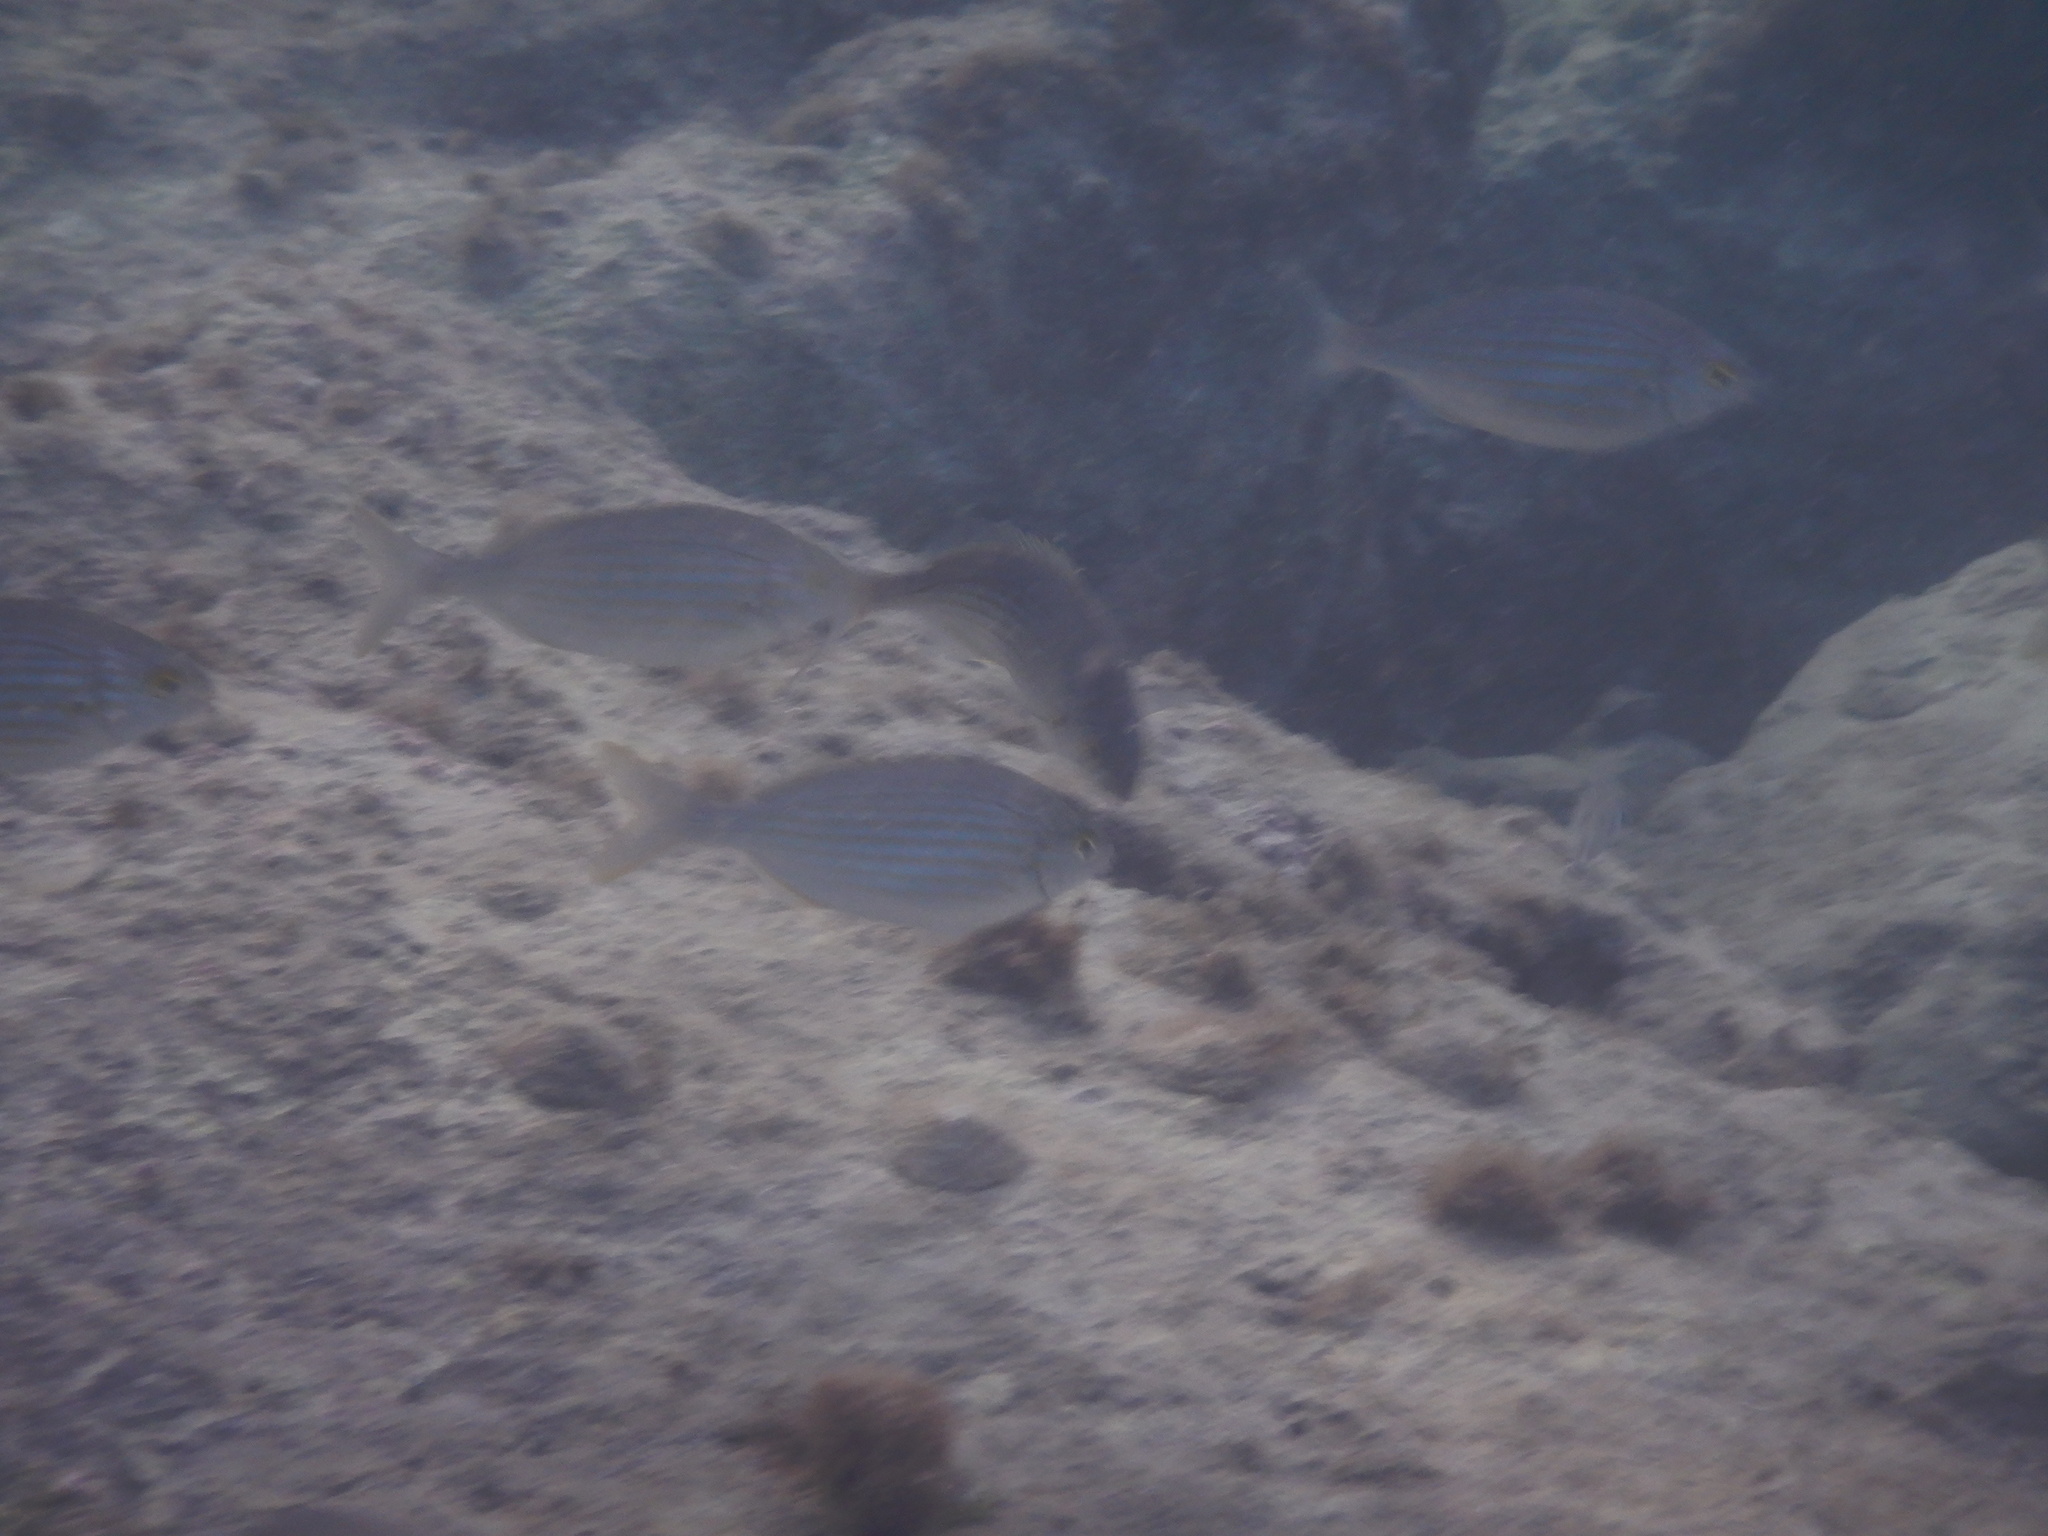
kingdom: Animalia
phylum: Chordata
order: Perciformes
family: Sparidae
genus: Sarpa
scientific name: Sarpa salpa
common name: Salema
